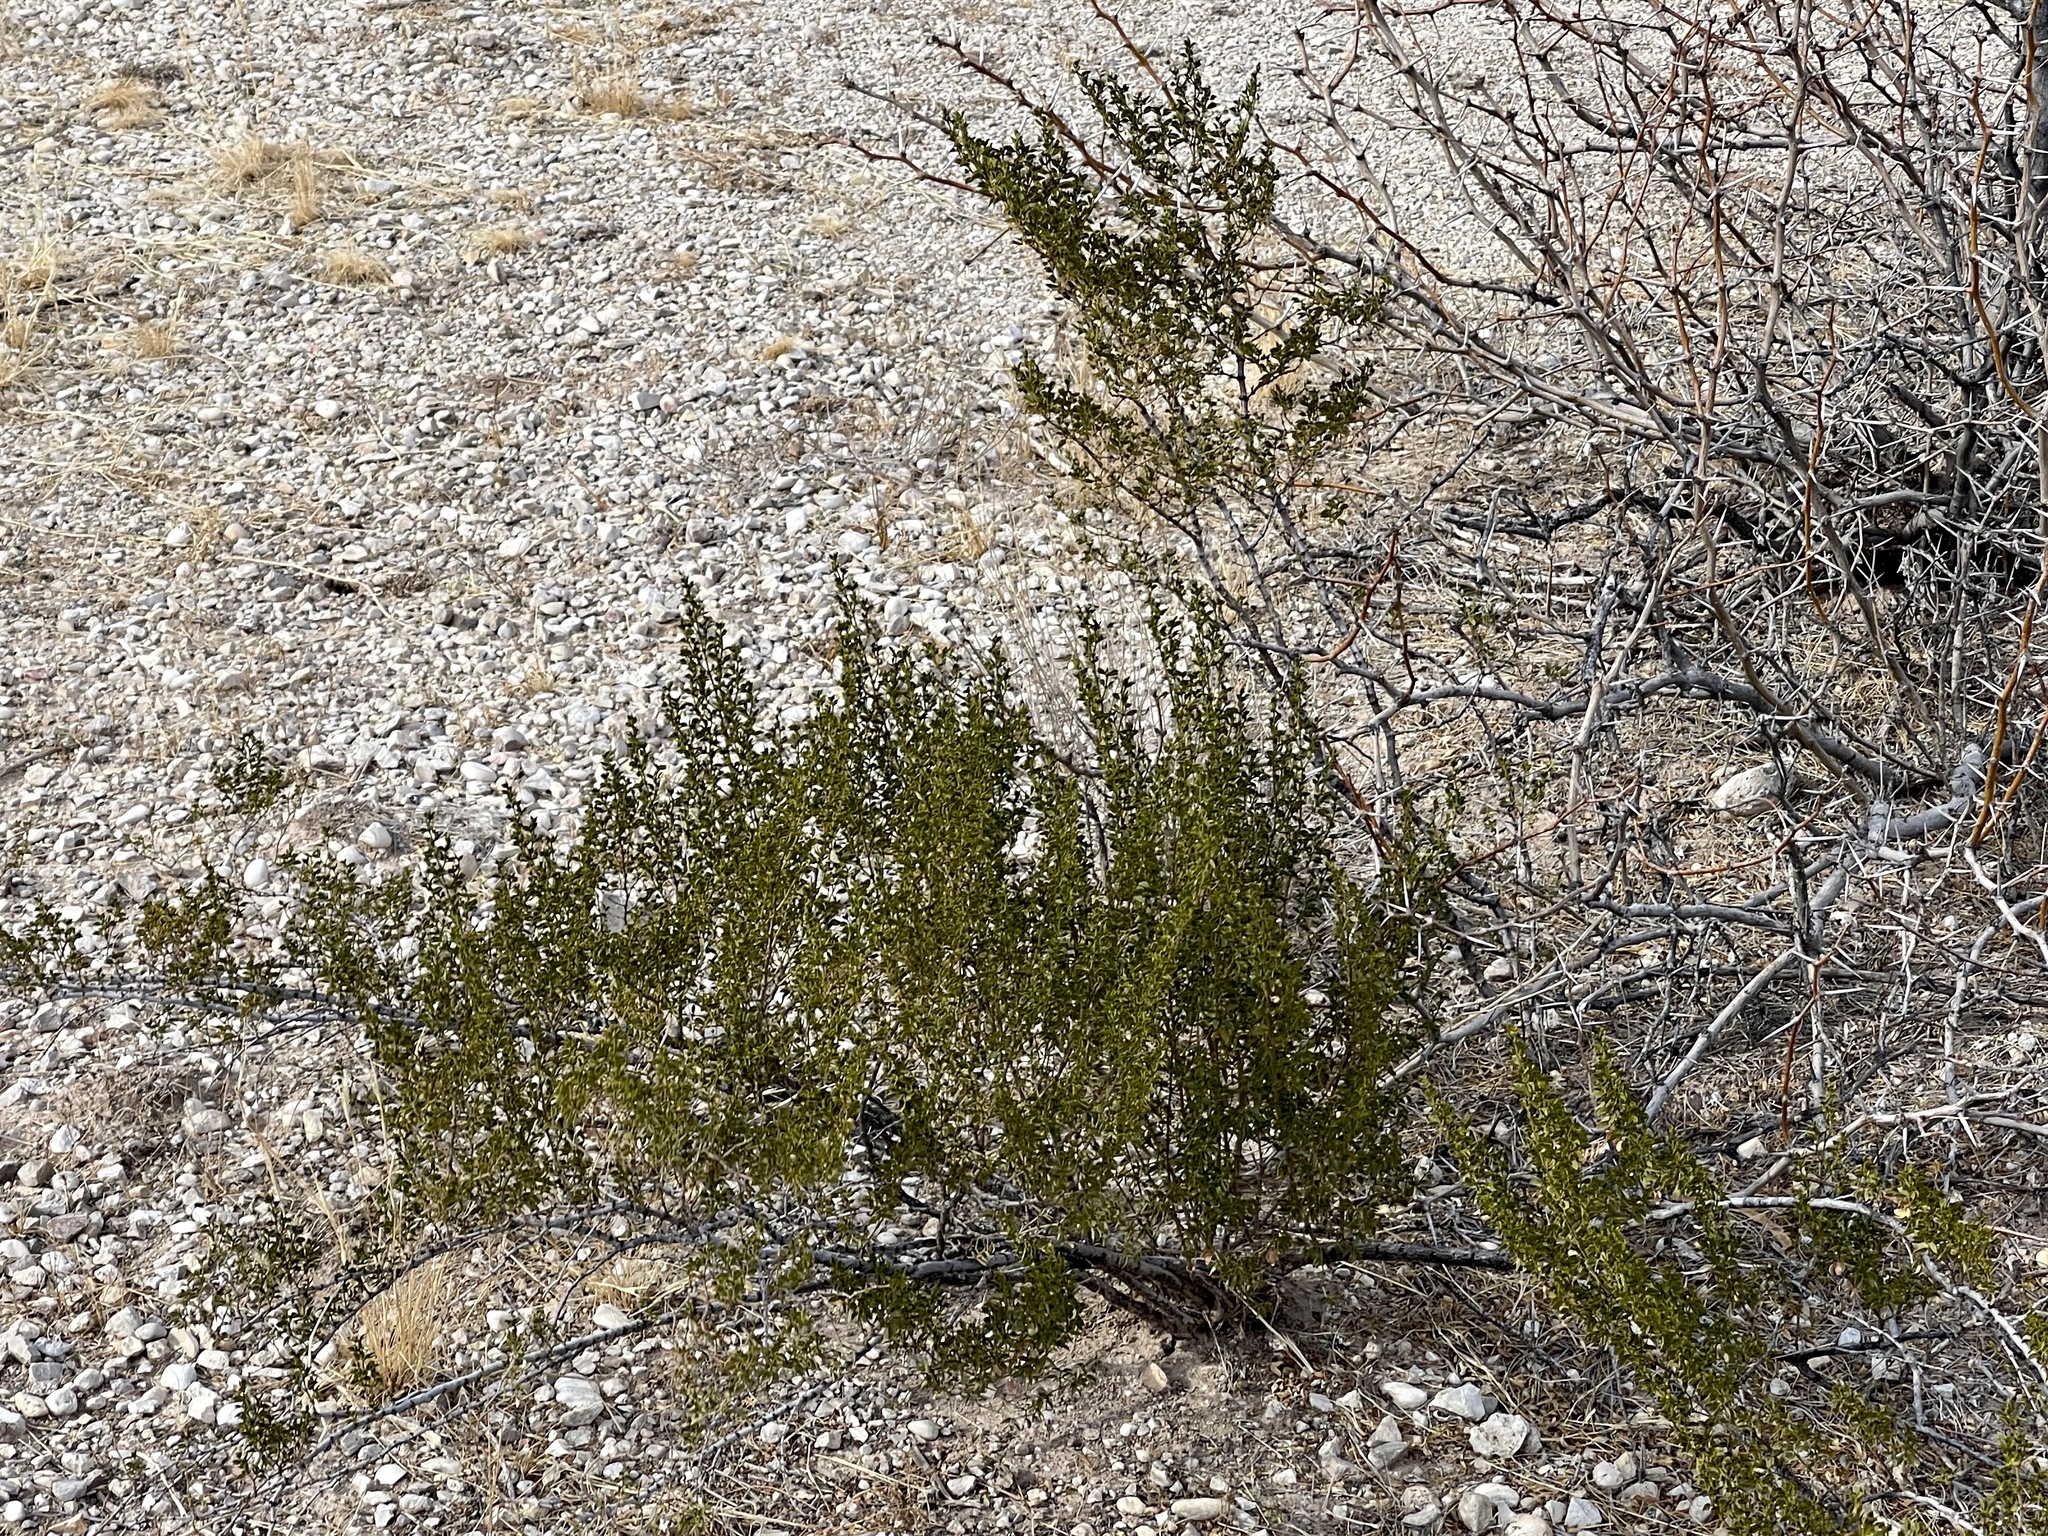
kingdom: Plantae
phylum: Tracheophyta
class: Magnoliopsida
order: Zygophyllales
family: Zygophyllaceae
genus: Larrea
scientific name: Larrea tridentata
